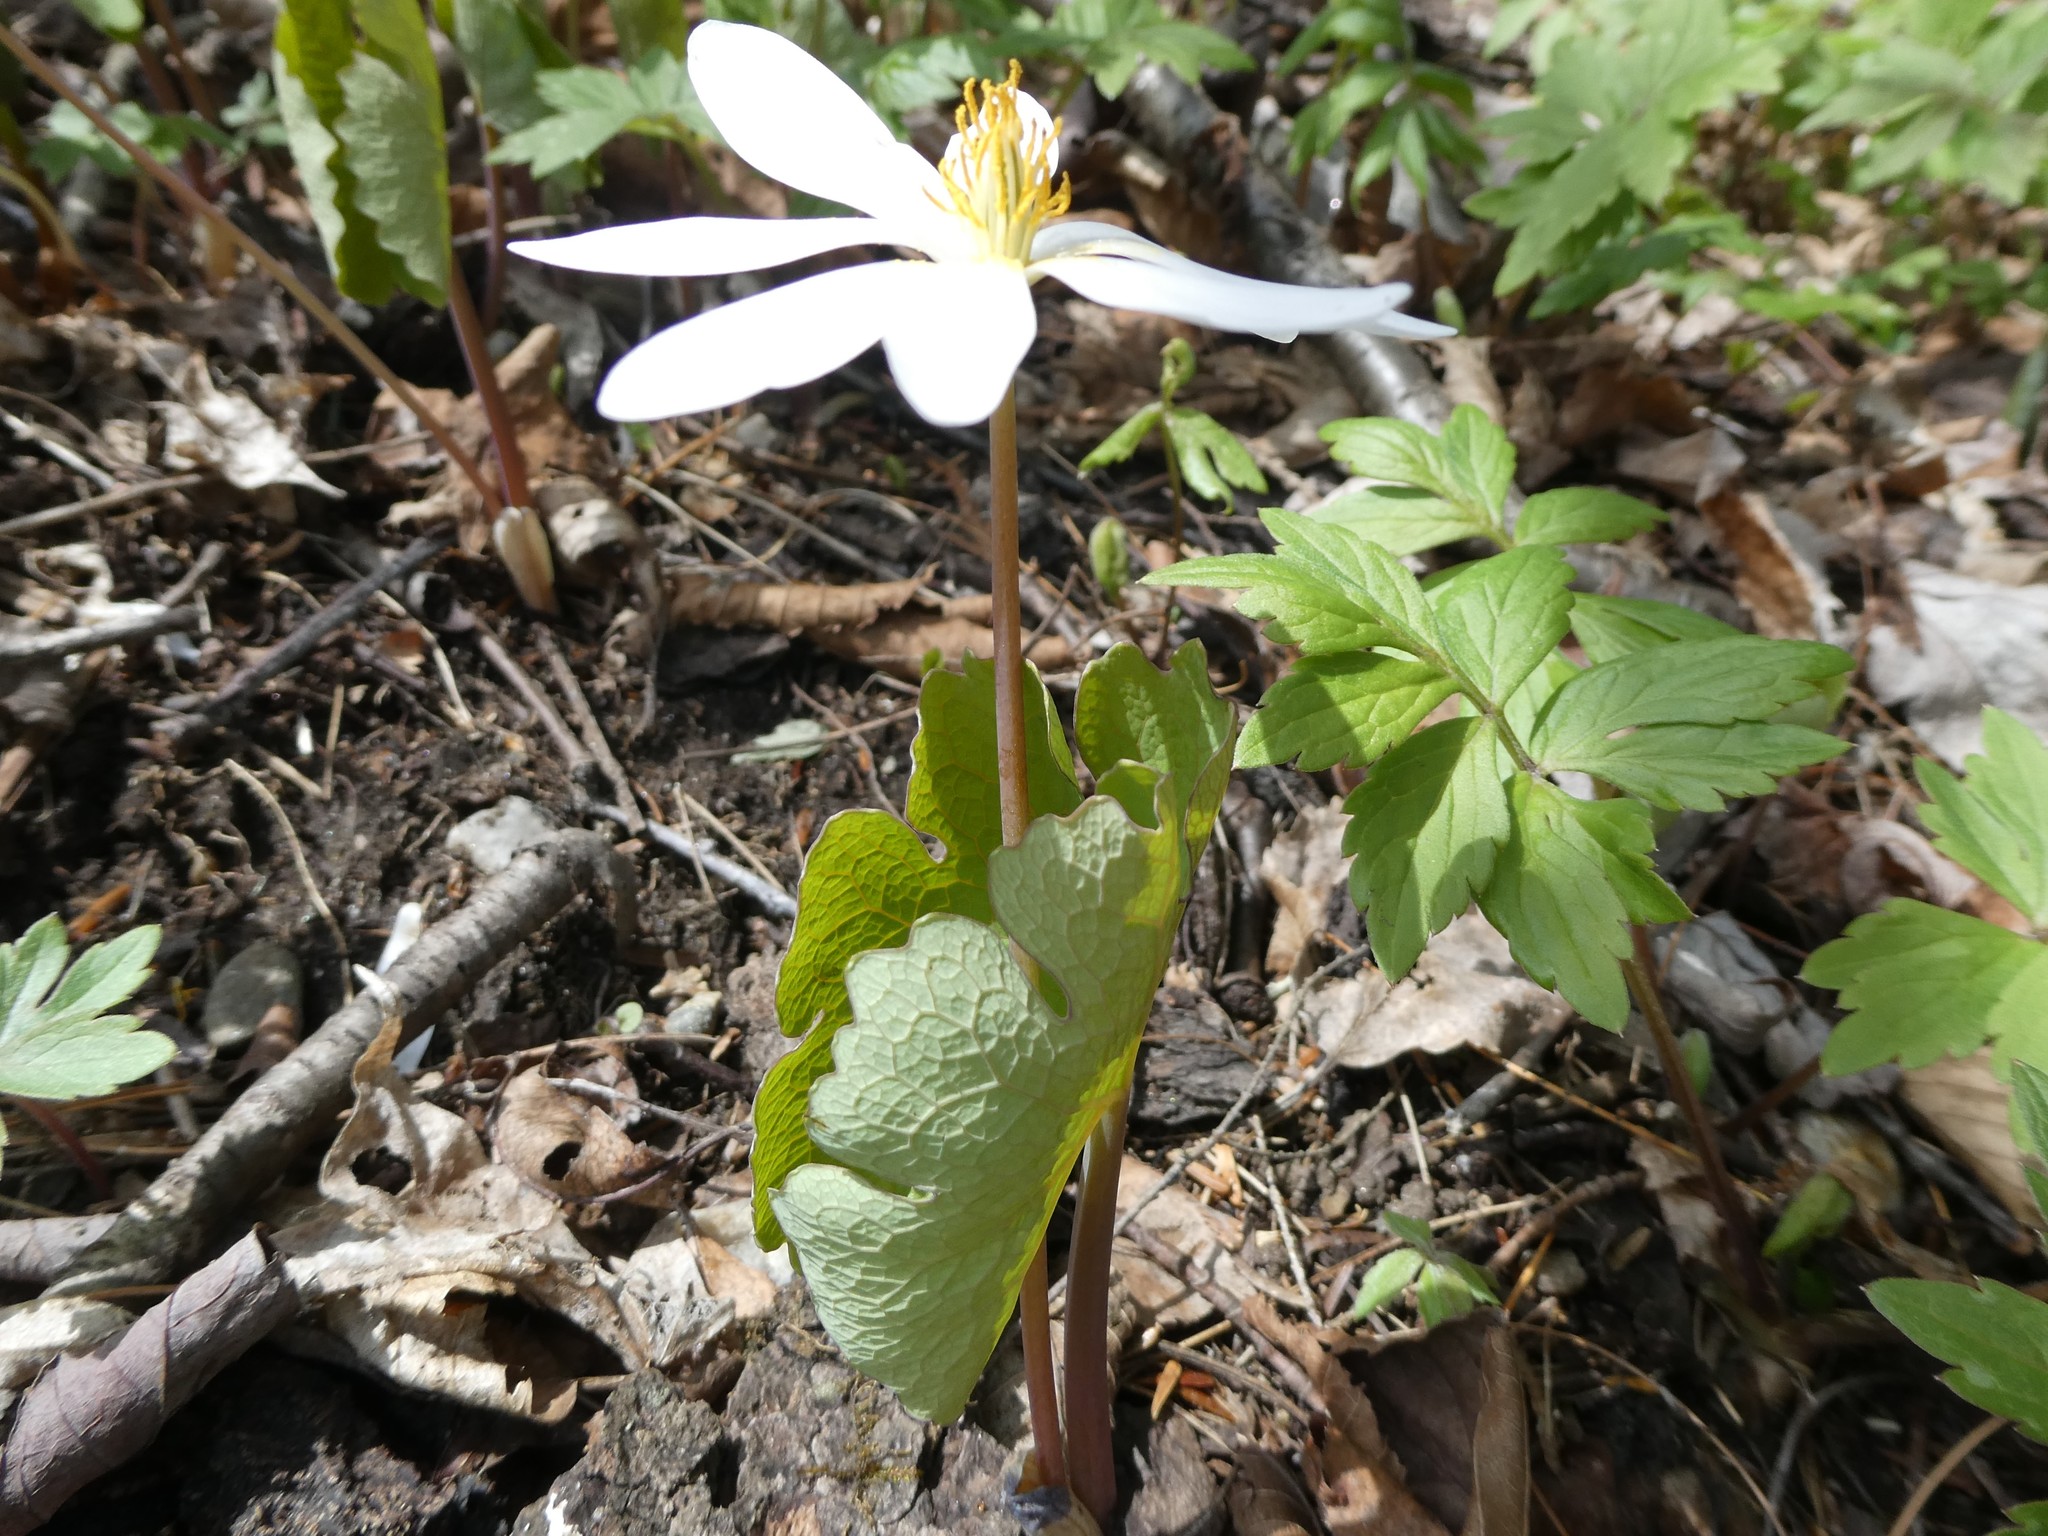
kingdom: Plantae
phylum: Tracheophyta
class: Magnoliopsida
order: Ranunculales
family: Papaveraceae
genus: Sanguinaria
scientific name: Sanguinaria canadensis
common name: Bloodroot
